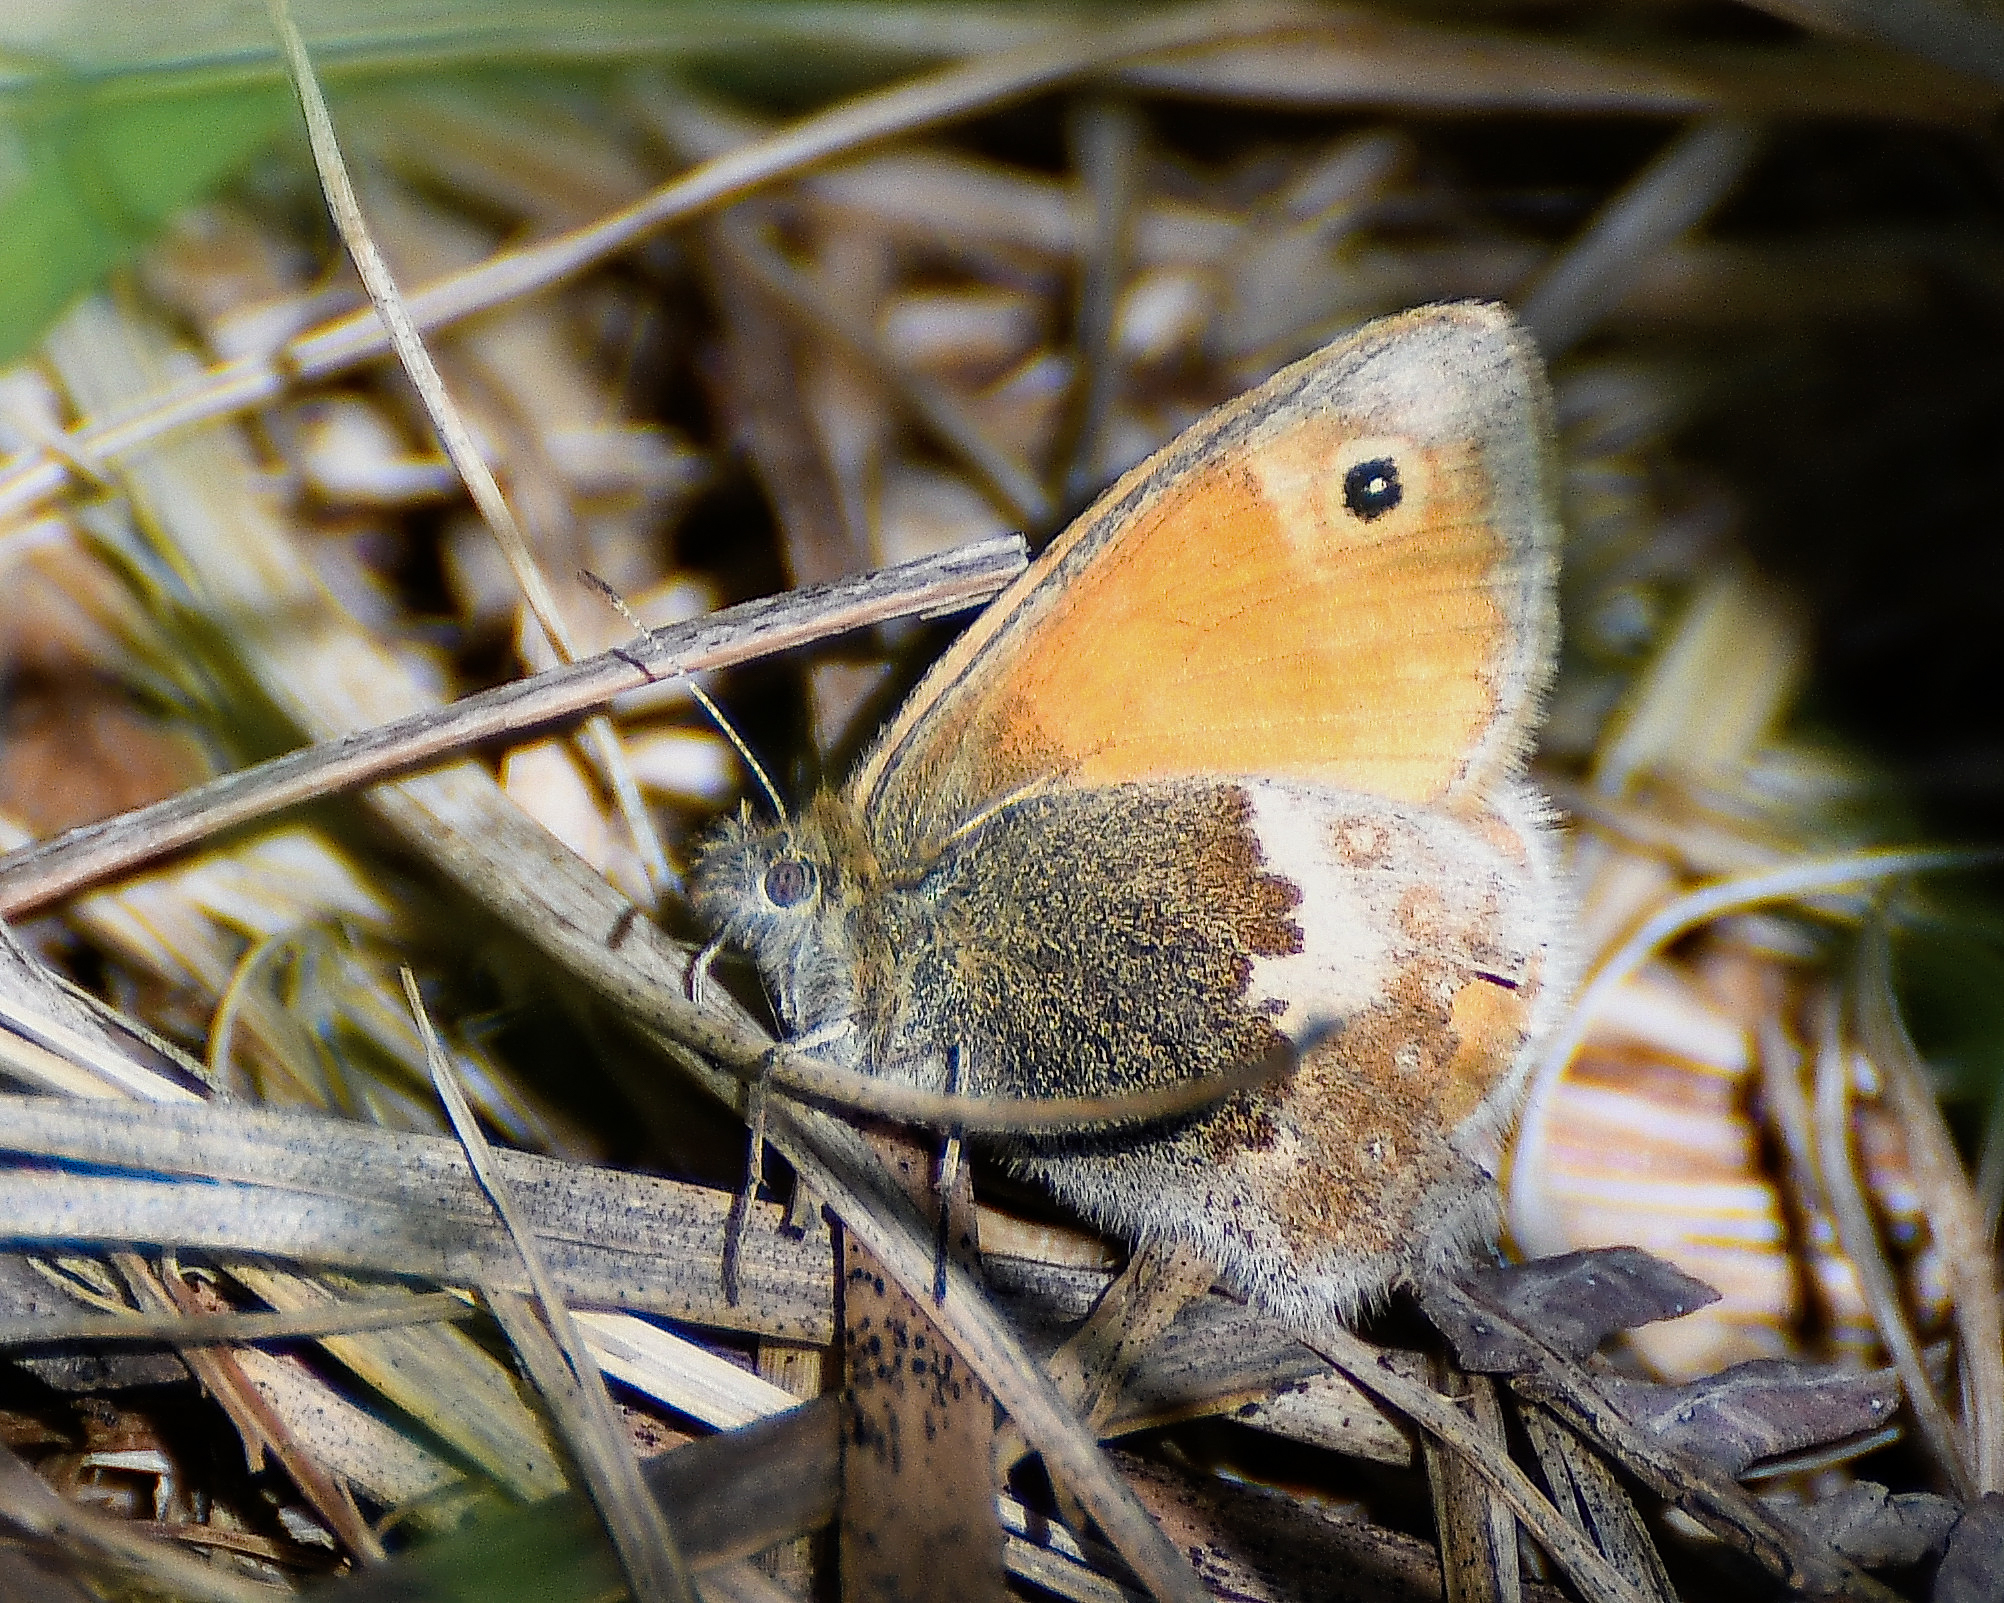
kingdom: Animalia
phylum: Arthropoda
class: Insecta
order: Lepidoptera
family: Nymphalidae
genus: Coenonympha
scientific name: Coenonympha pamphilus
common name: Small heath
